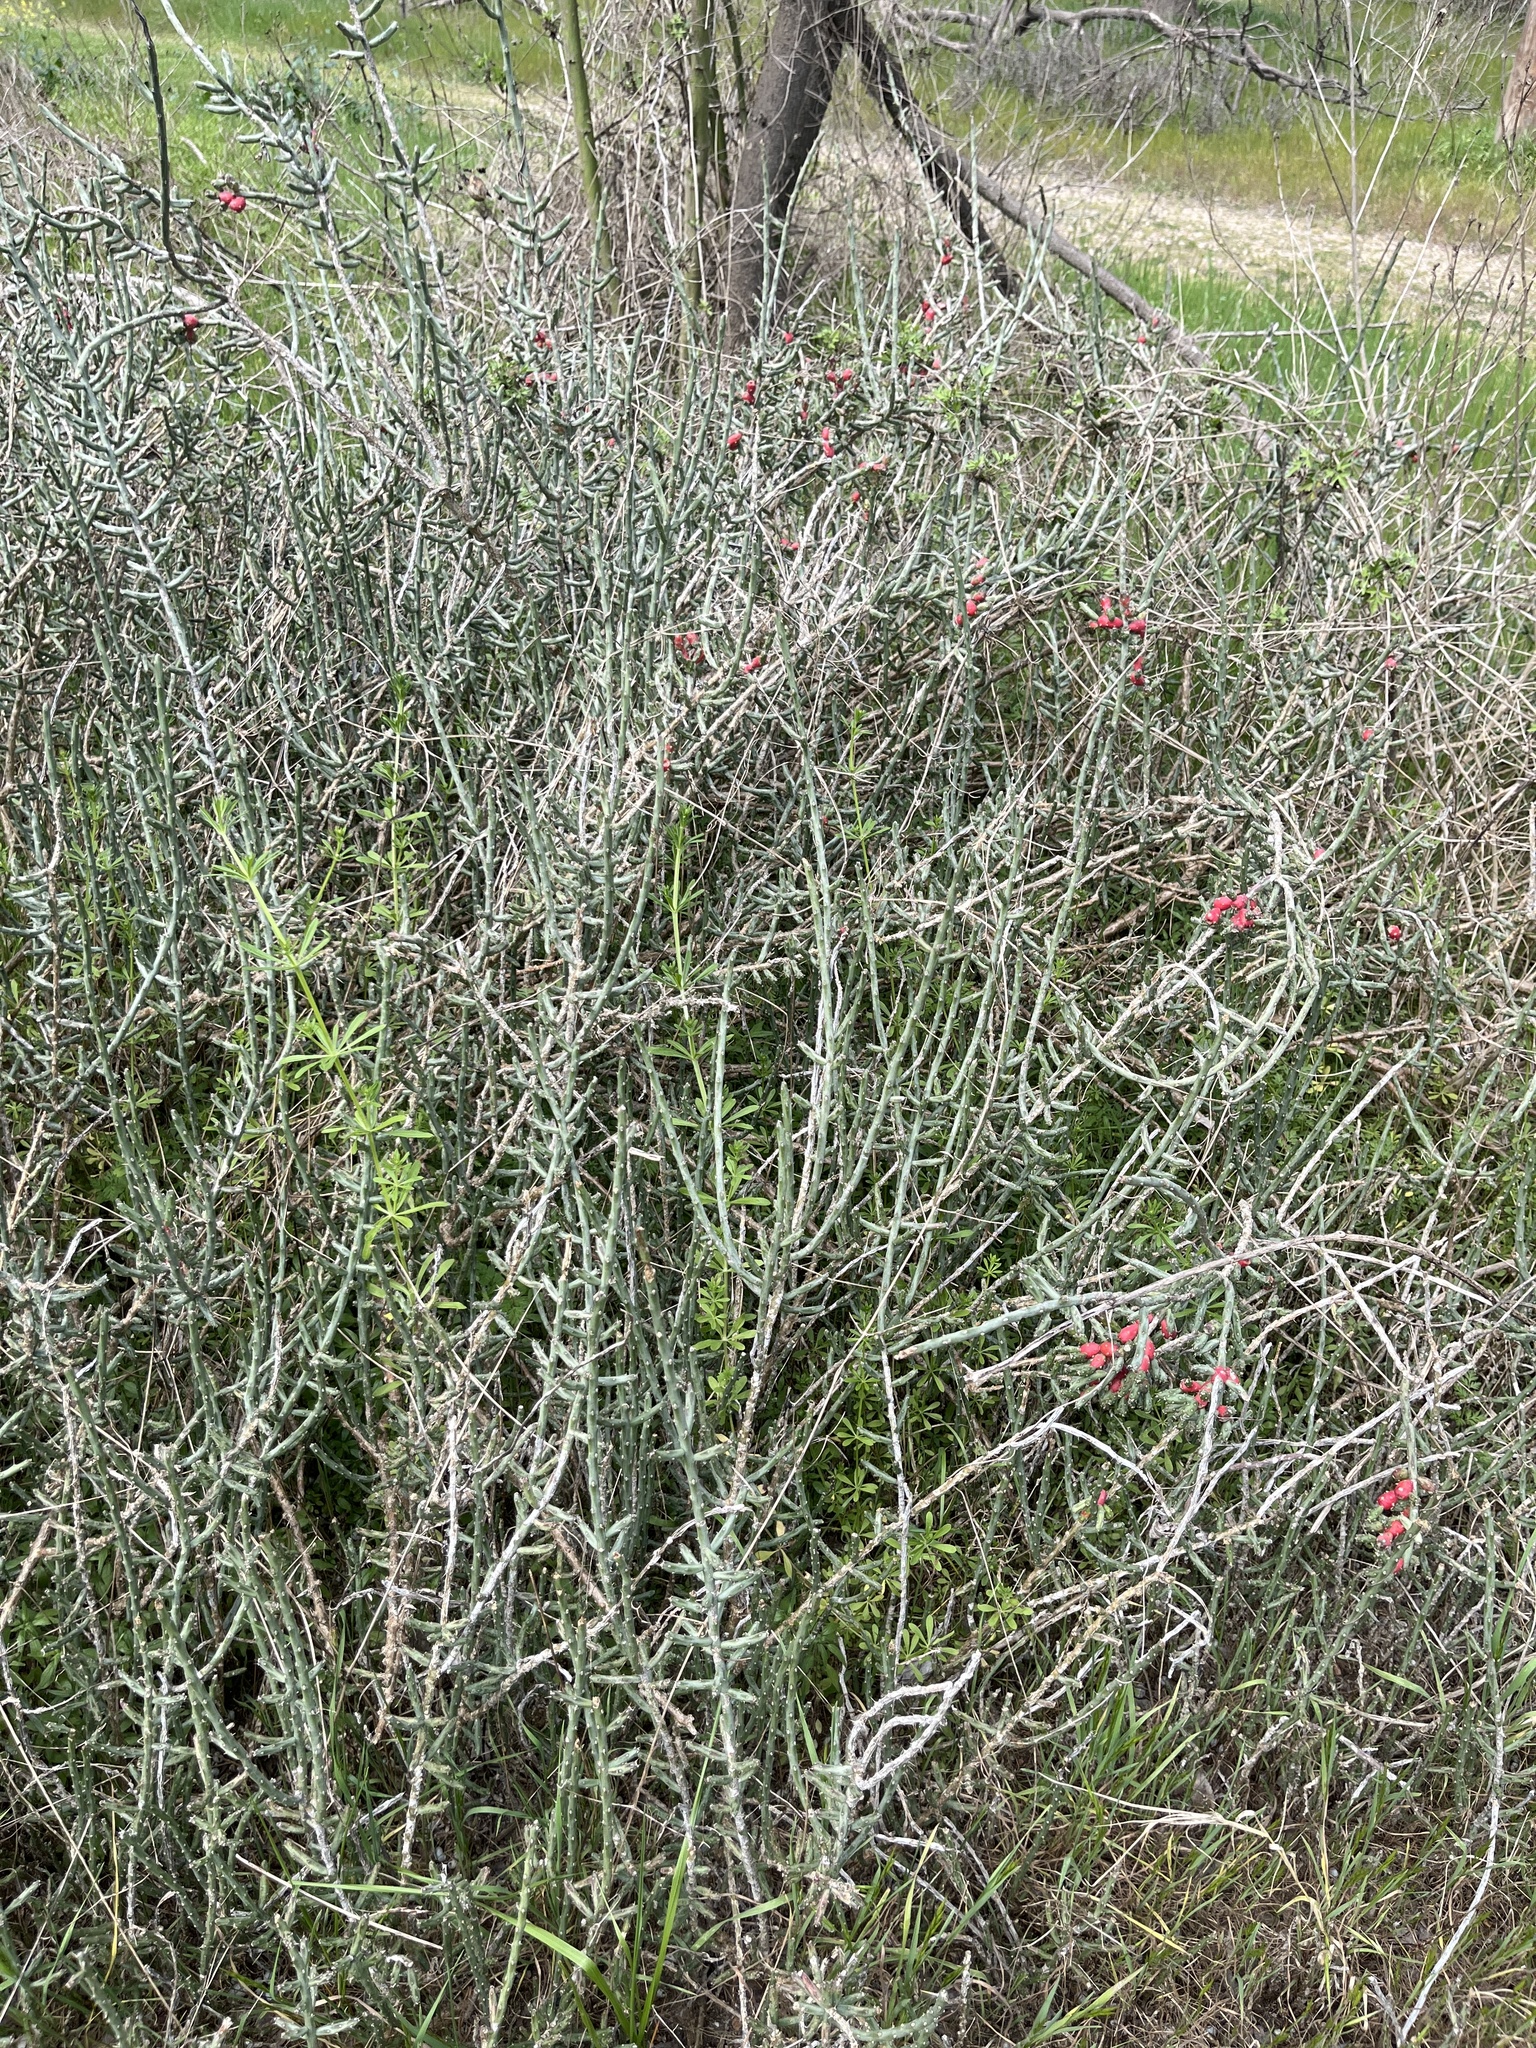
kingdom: Plantae
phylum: Tracheophyta
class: Magnoliopsida
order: Caryophyllales
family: Cactaceae
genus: Cylindropuntia
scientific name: Cylindropuntia leptocaulis
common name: Christmas cactus
